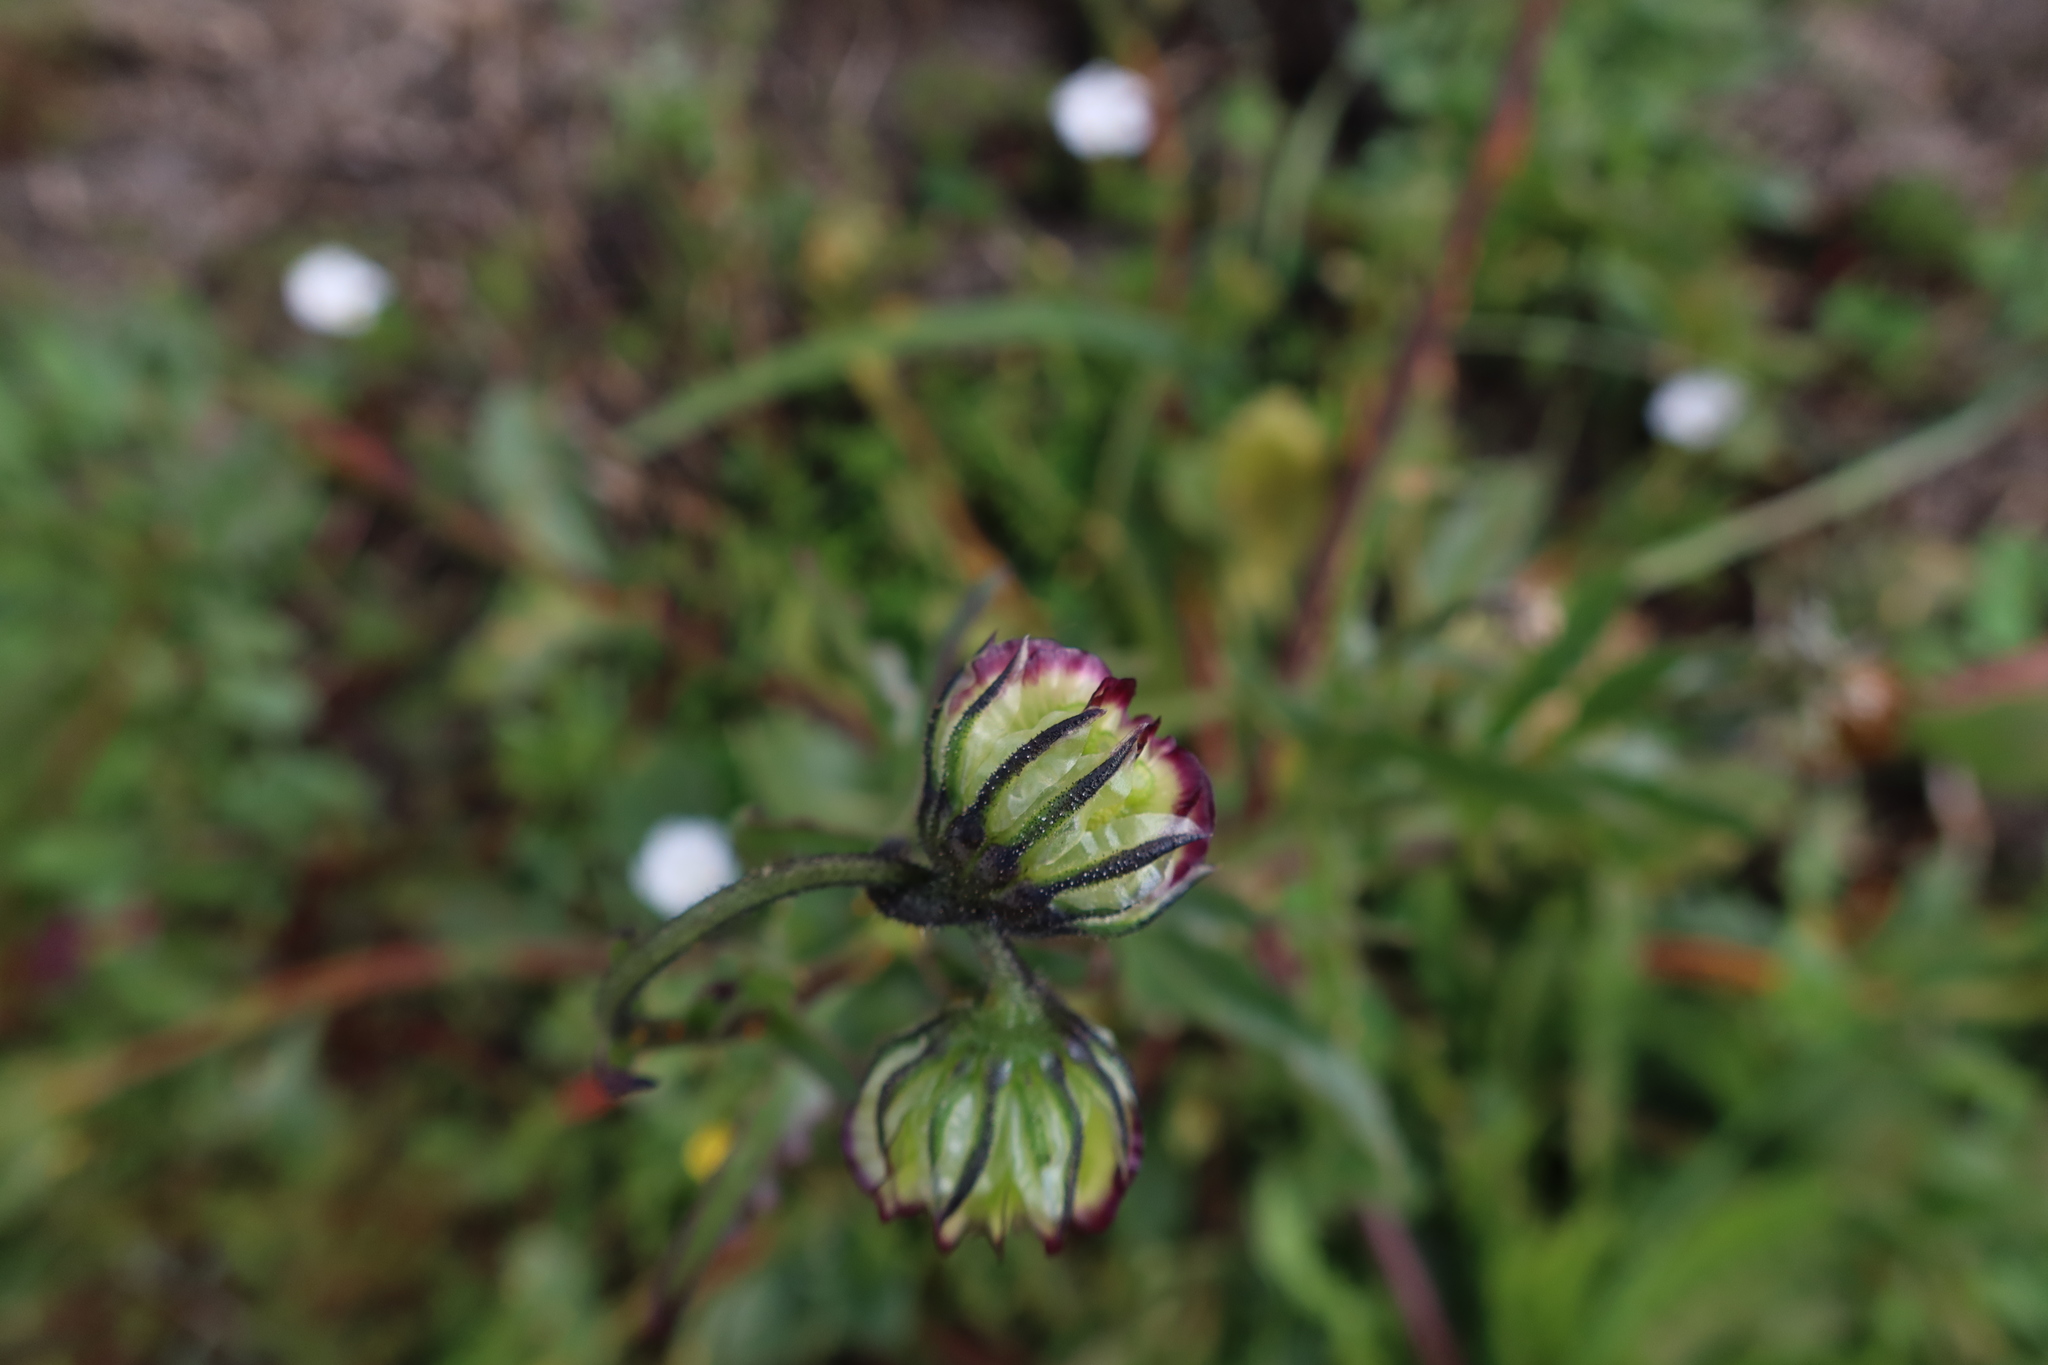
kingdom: Plantae
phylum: Tracheophyta
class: Magnoliopsida
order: Asterales
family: Asteraceae
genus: Osteospermum
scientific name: Osteospermum monstrosum
